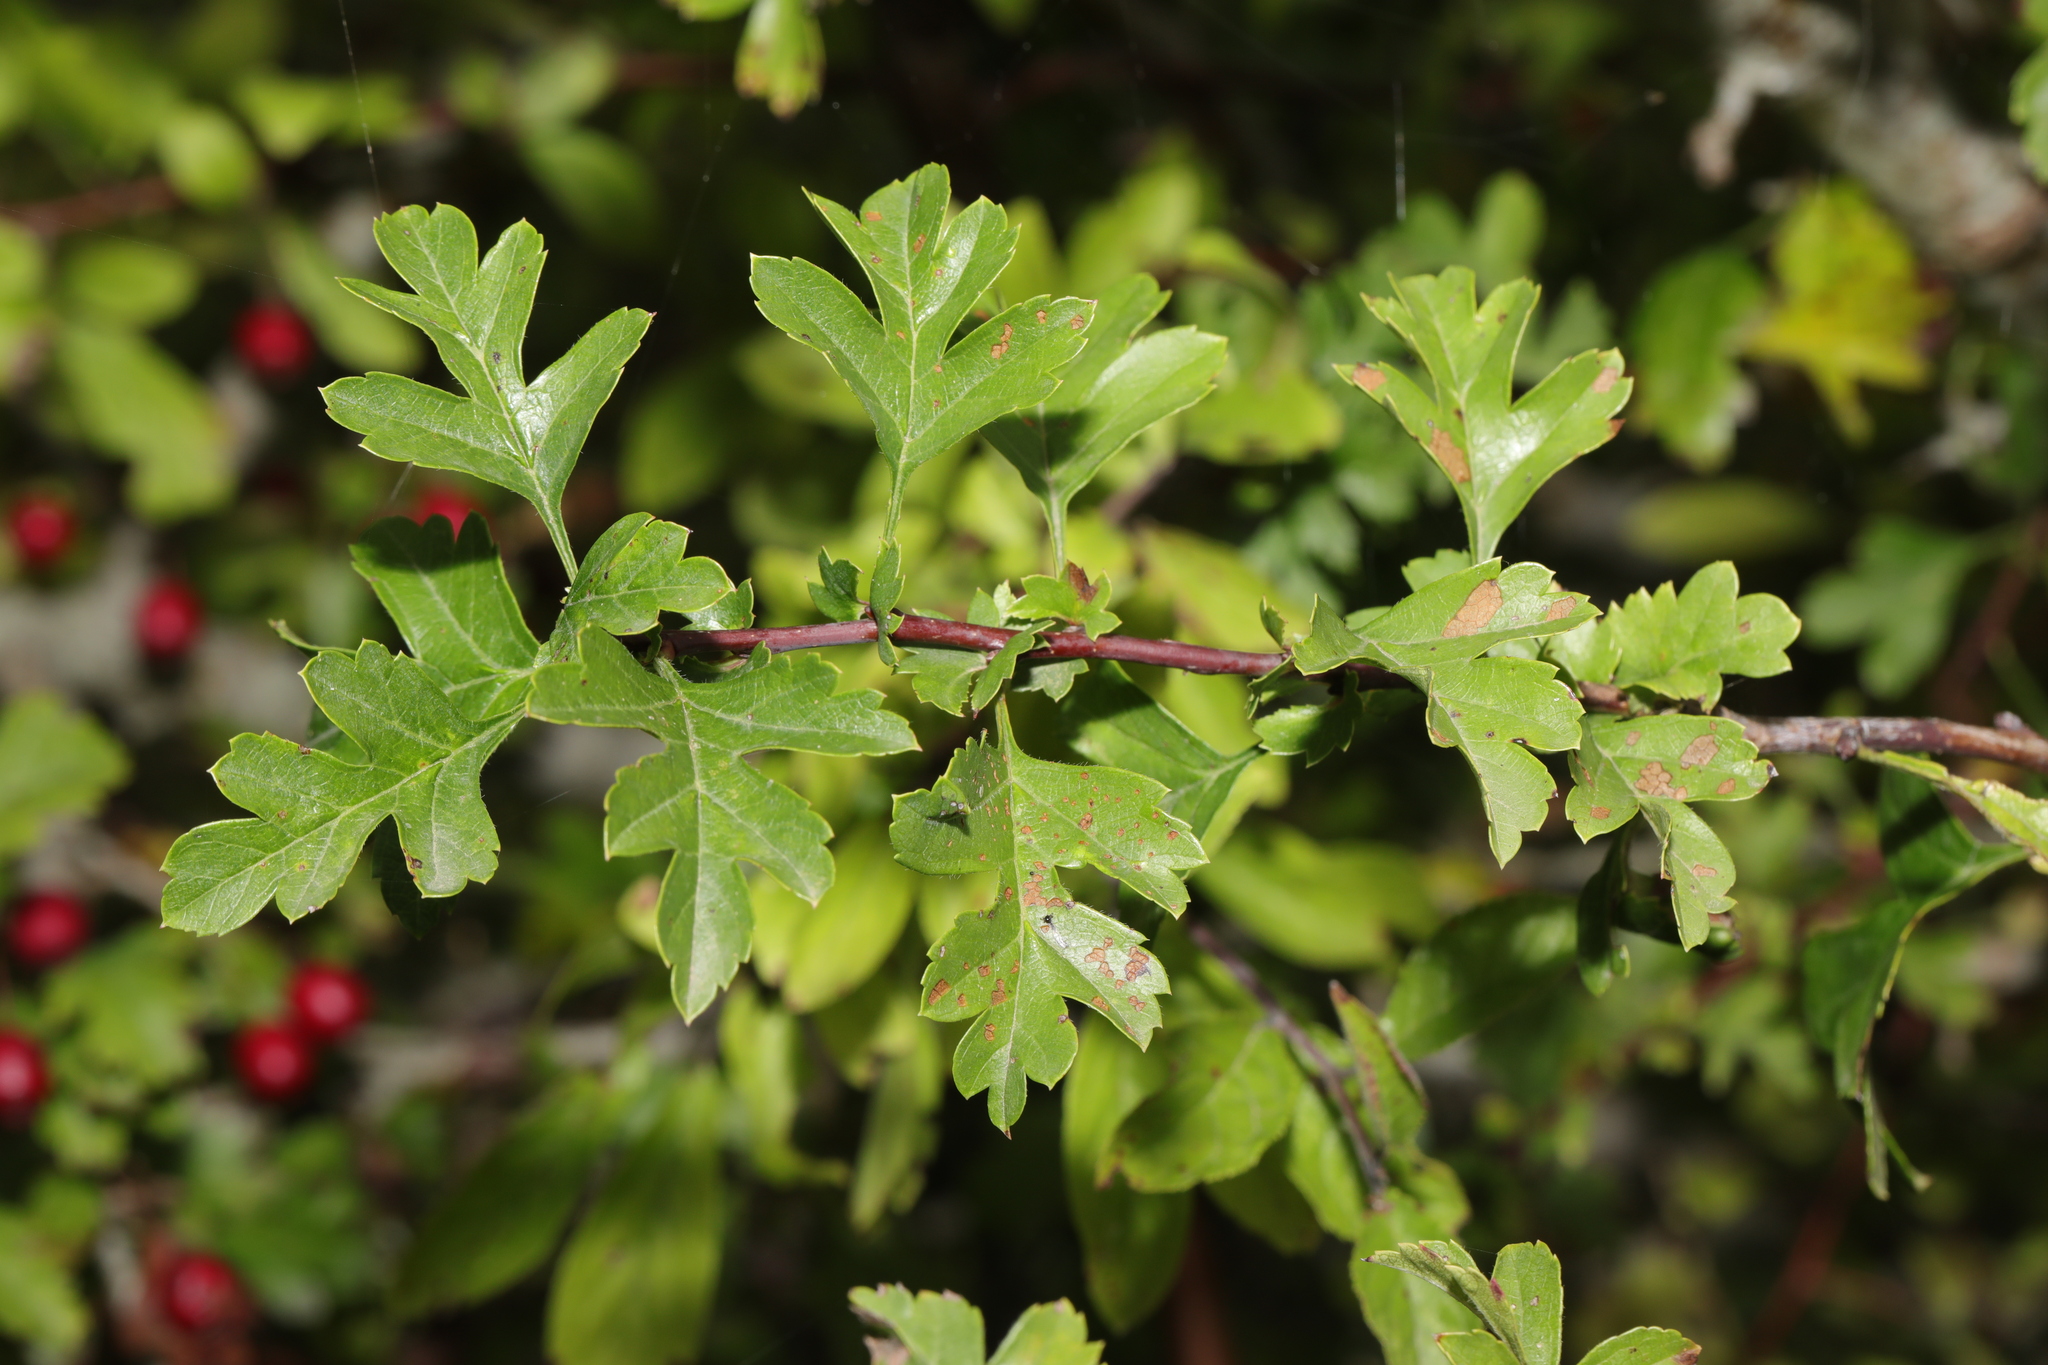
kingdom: Plantae
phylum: Tracheophyta
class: Magnoliopsida
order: Rosales
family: Rosaceae
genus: Crataegus
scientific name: Crataegus monogyna
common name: Hawthorn
